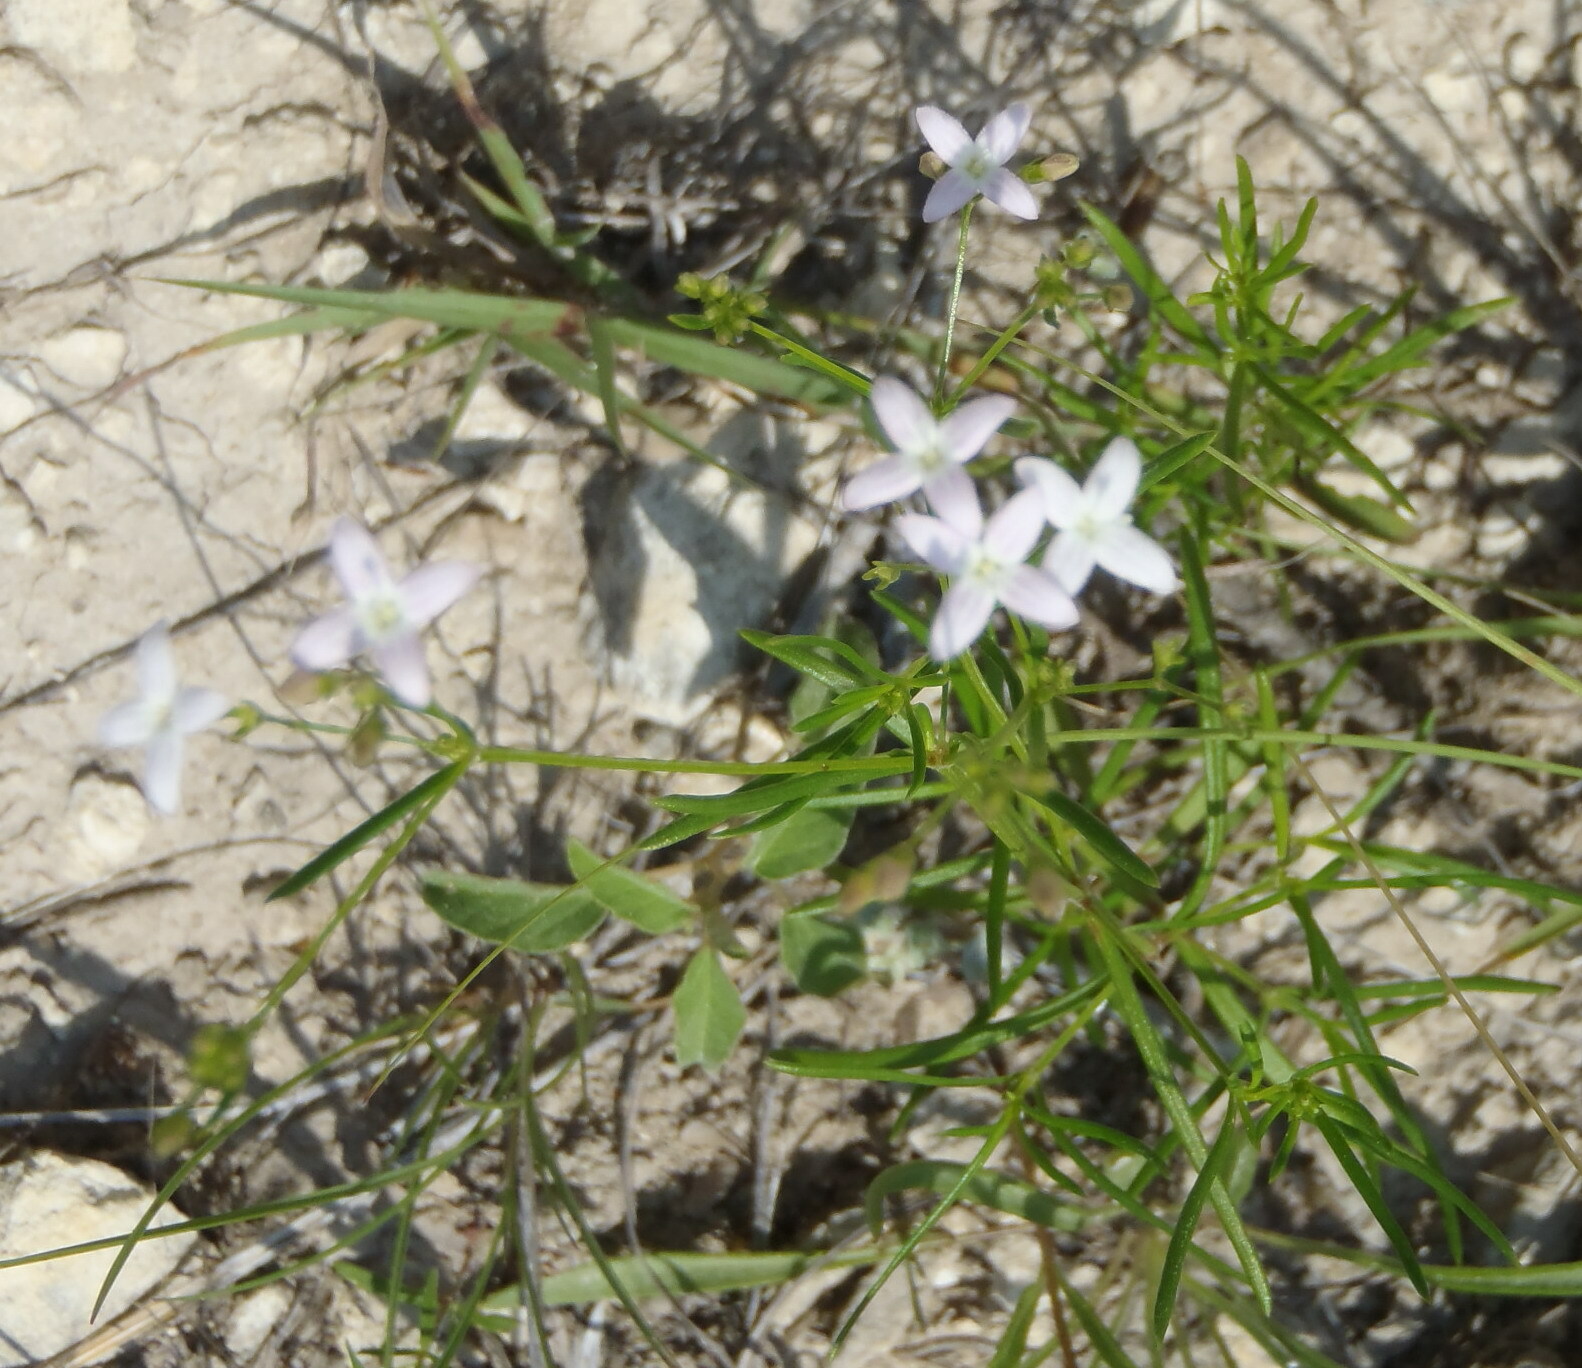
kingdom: Plantae
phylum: Tracheophyta
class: Magnoliopsida
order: Gentianales
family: Rubiaceae
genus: Stenaria
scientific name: Stenaria nigricans
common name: Diamondflowers
